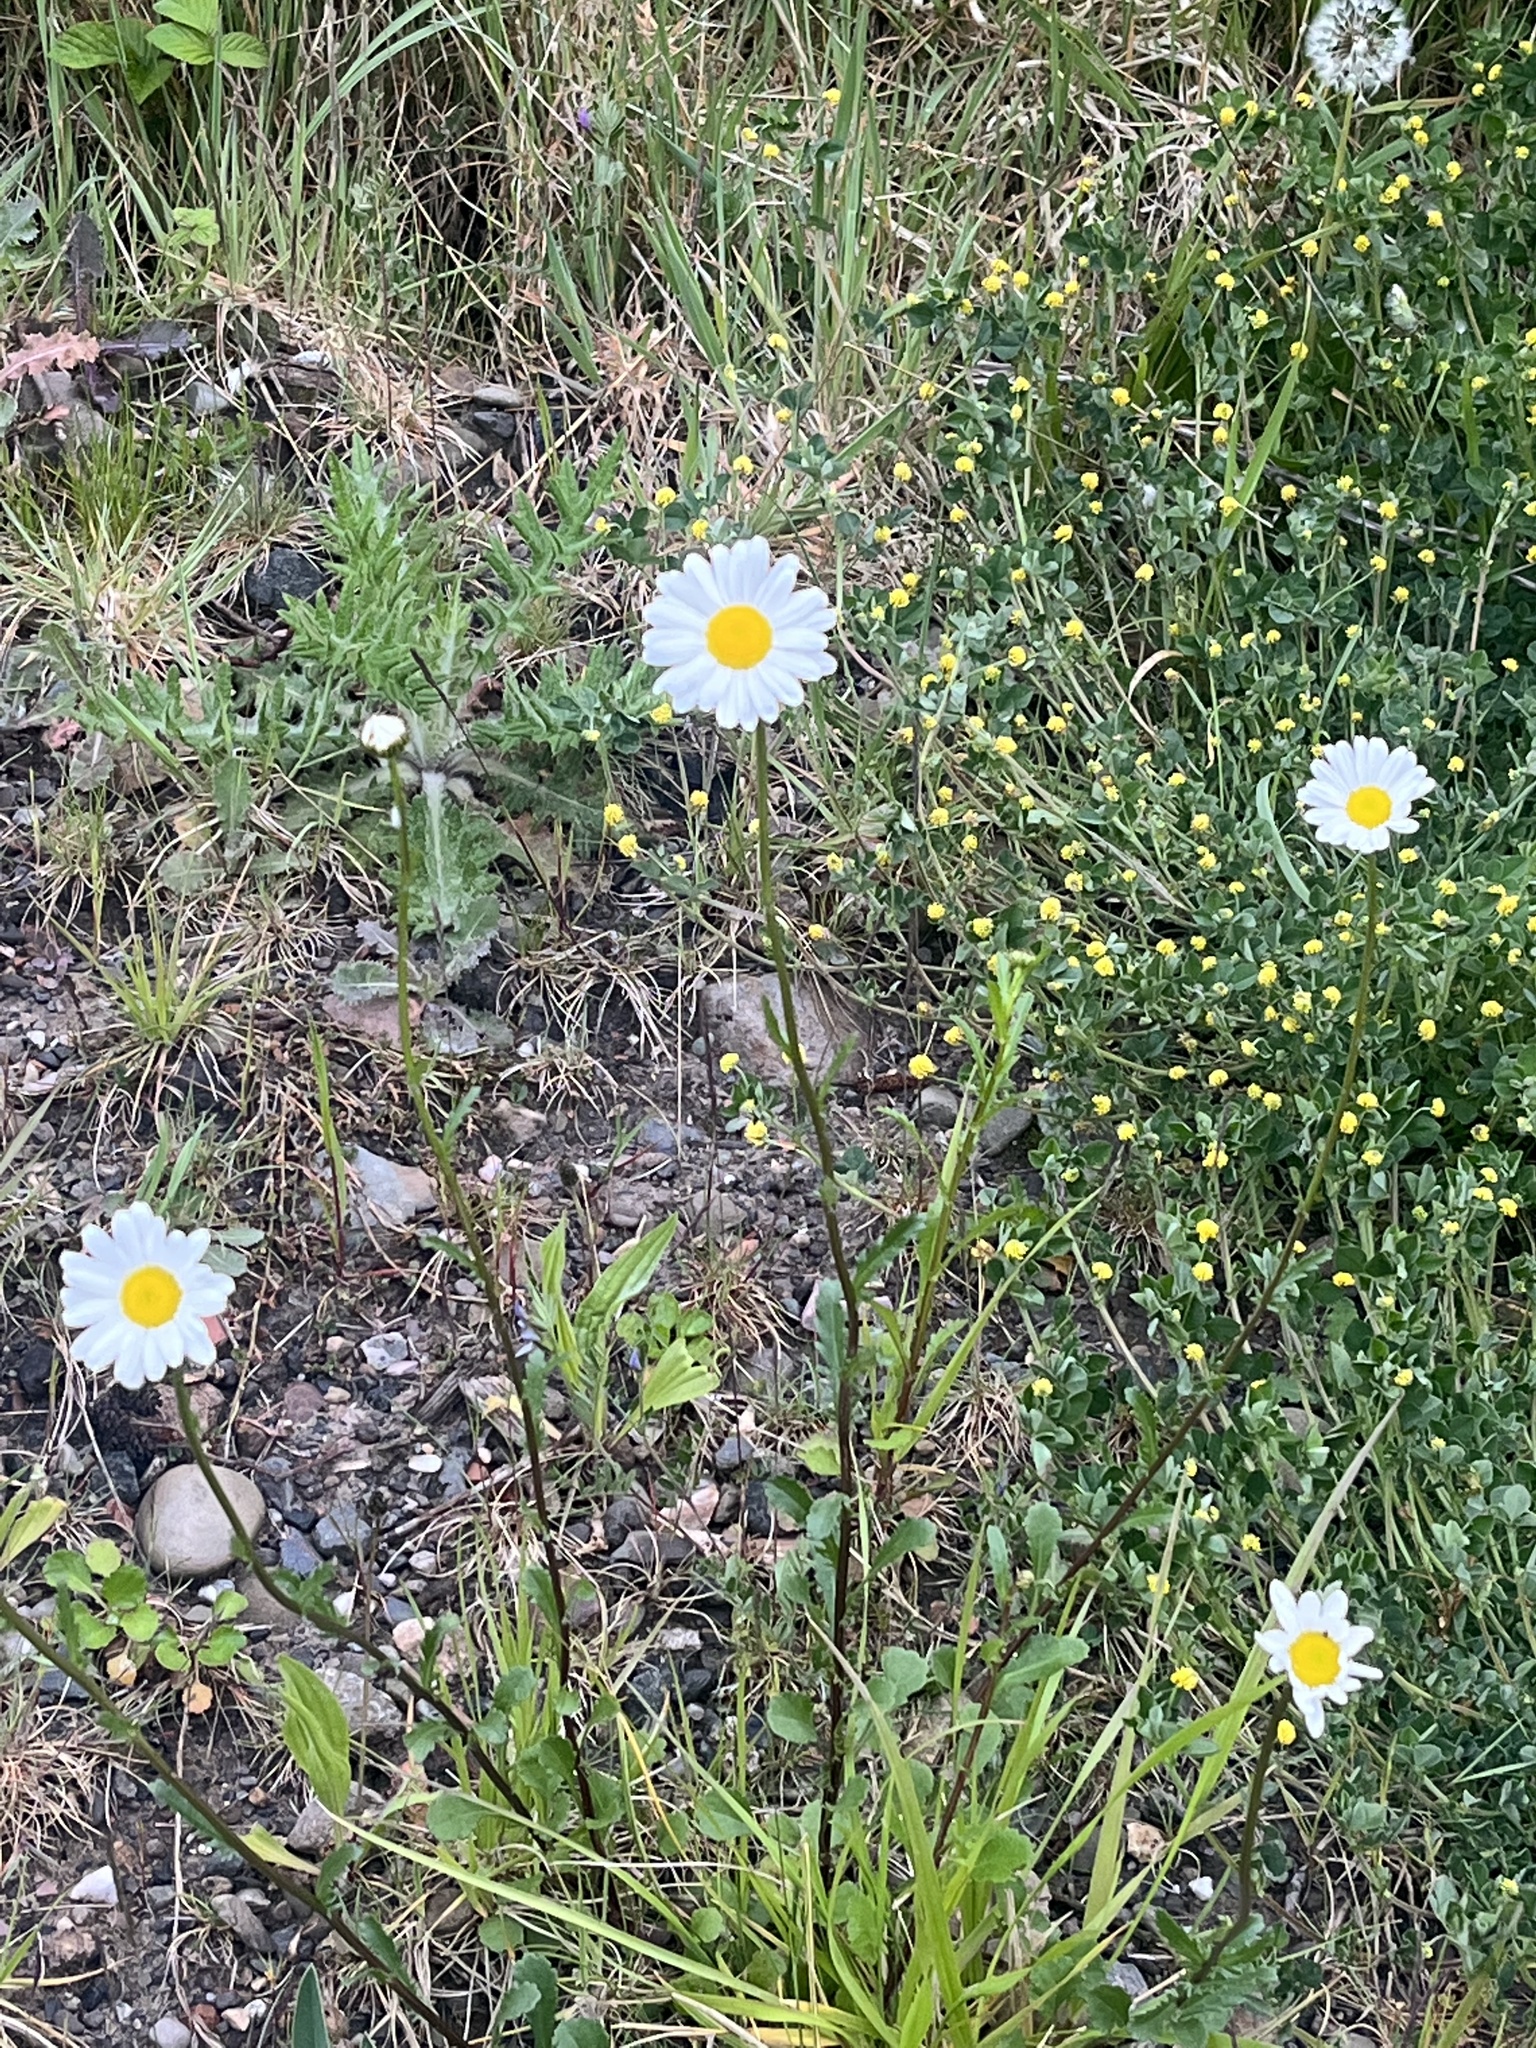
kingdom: Plantae
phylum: Tracheophyta
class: Magnoliopsida
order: Asterales
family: Asteraceae
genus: Leucanthemum
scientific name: Leucanthemum vulgare
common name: Oxeye daisy
